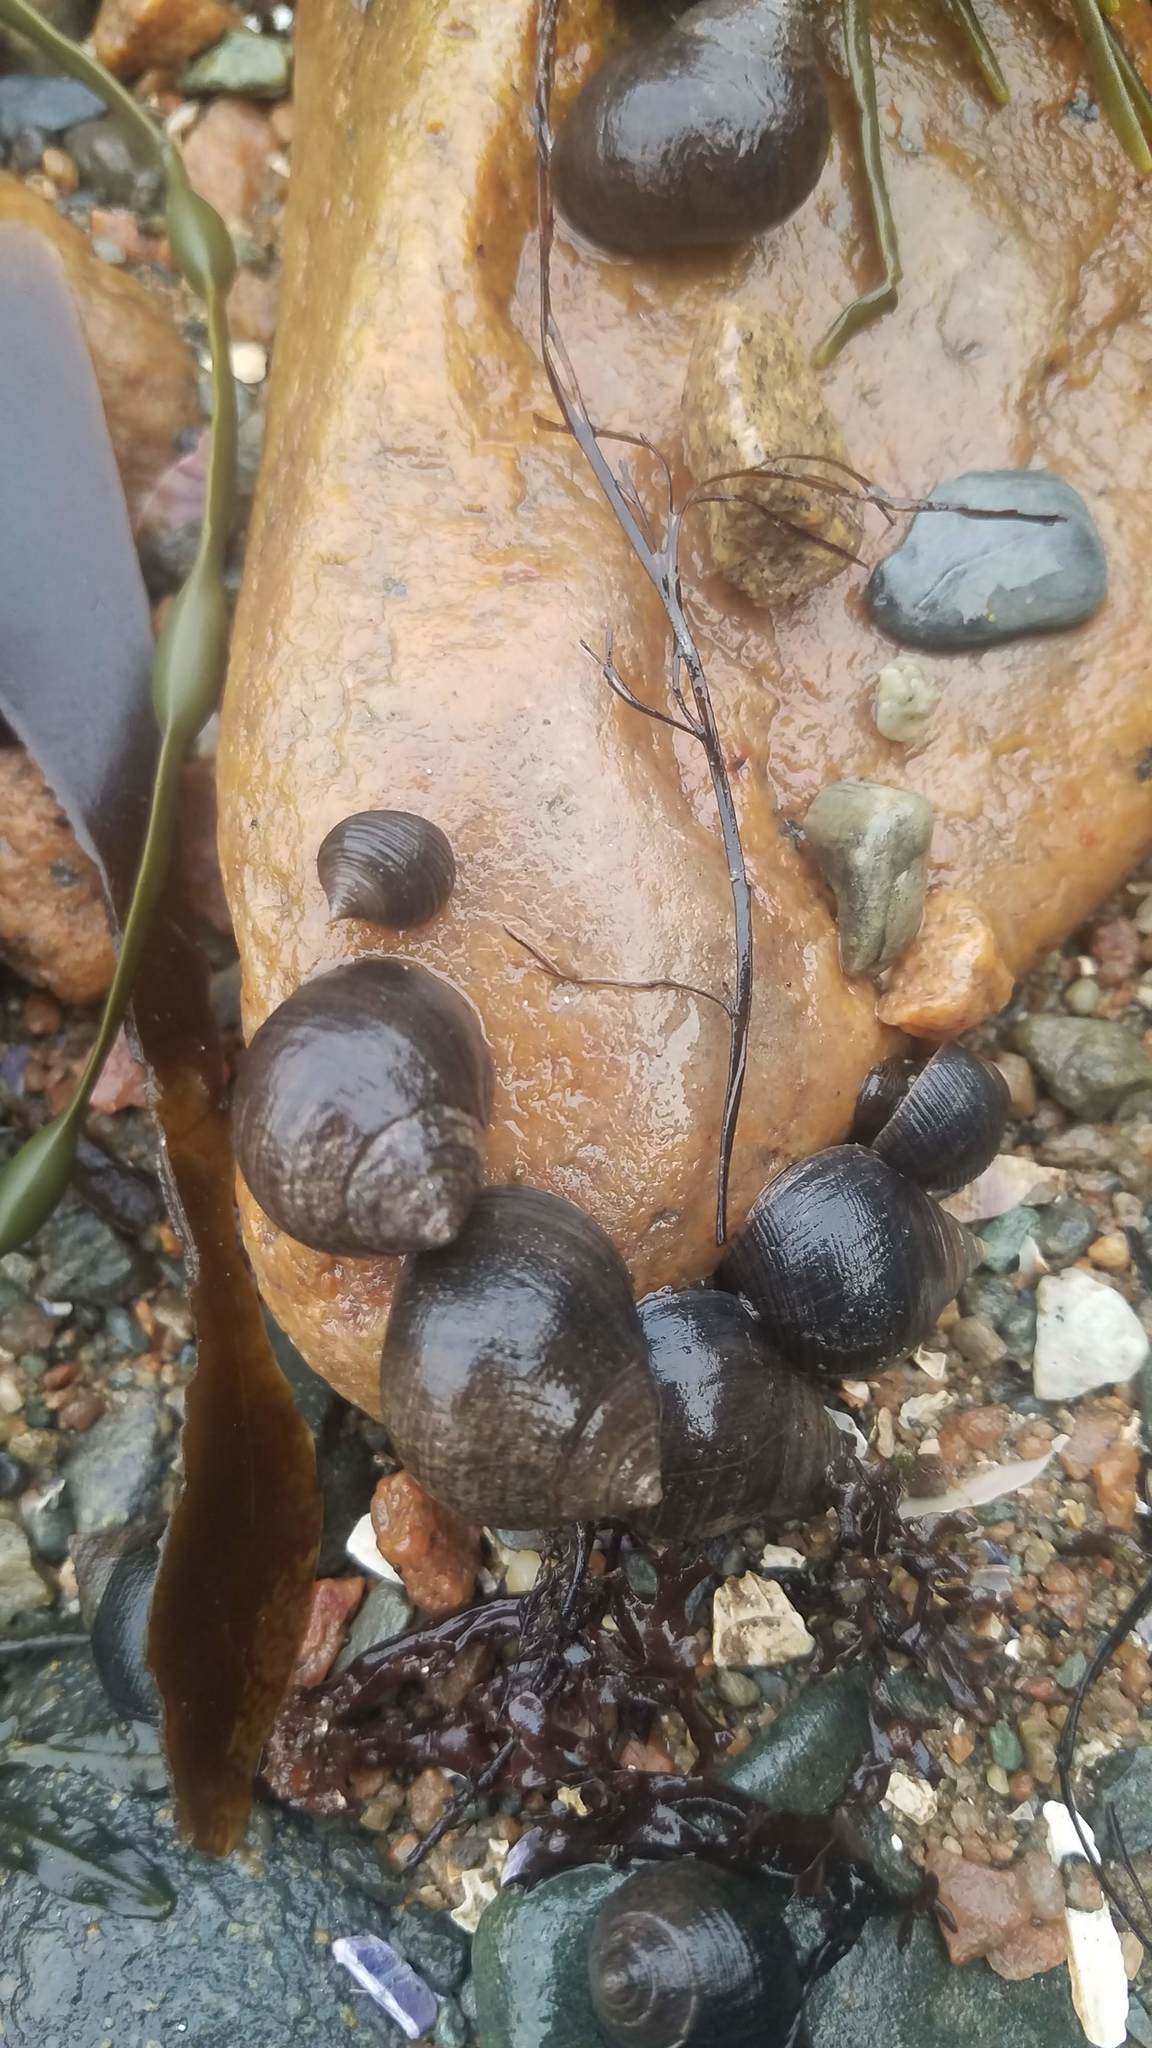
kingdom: Animalia
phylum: Mollusca
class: Gastropoda
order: Littorinimorpha
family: Littorinidae
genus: Littorina
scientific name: Littorina littorea
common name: Common periwinkle
